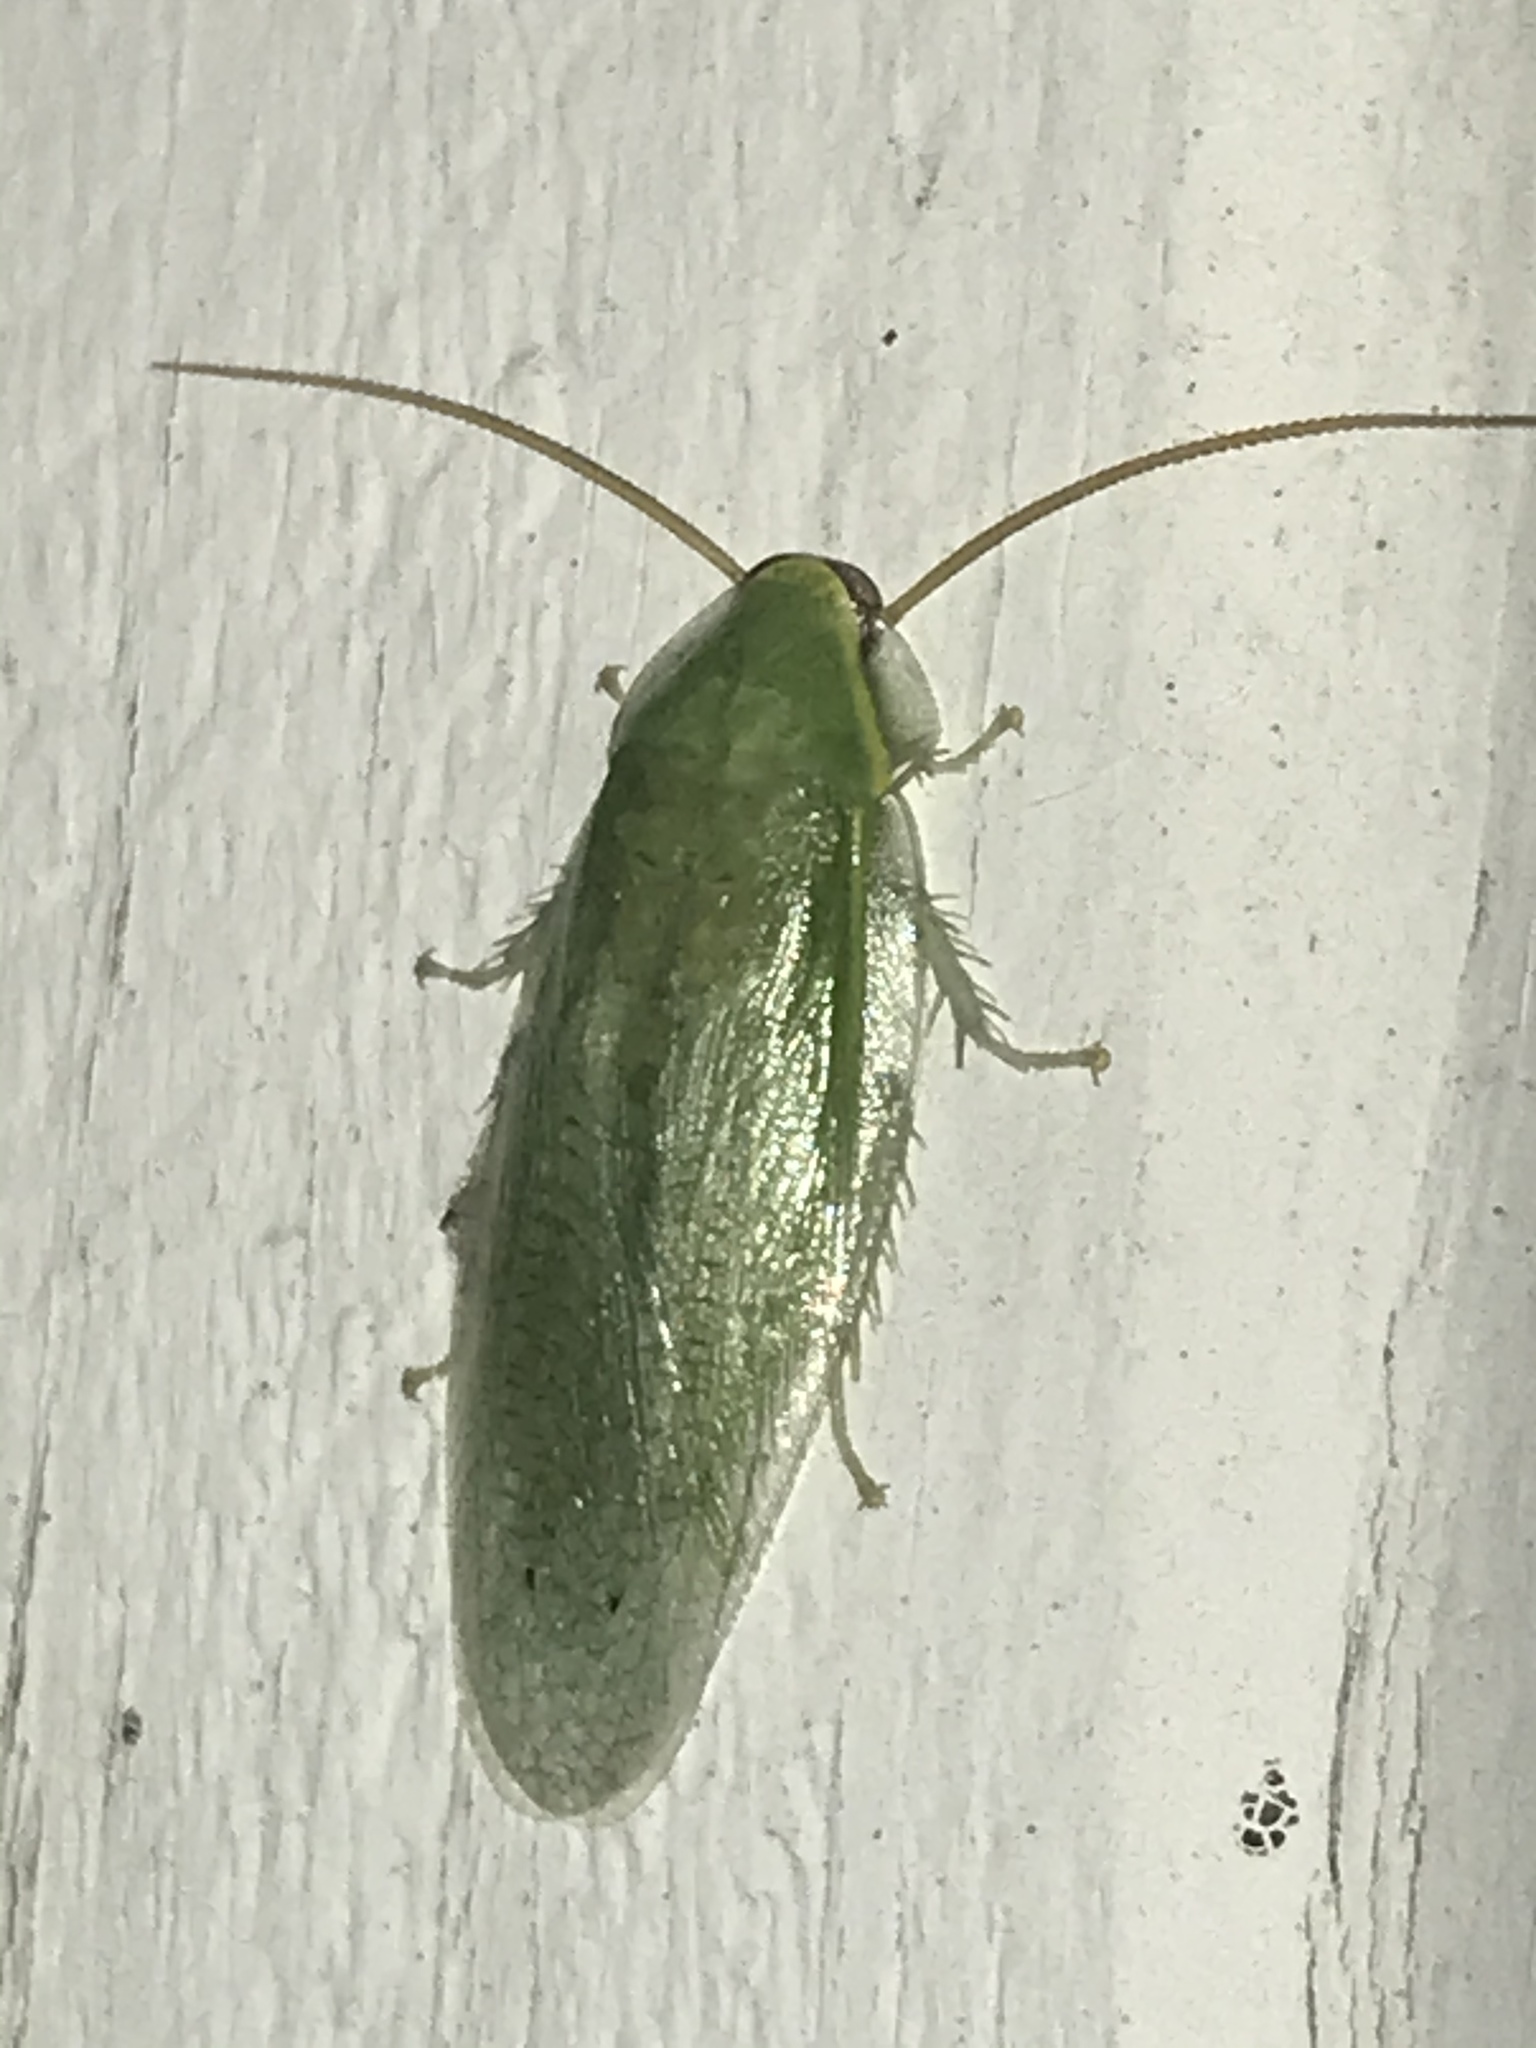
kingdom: Animalia
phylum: Arthropoda
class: Insecta
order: Blattodea
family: Blaberidae
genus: Panchlora
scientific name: Panchlora nivea
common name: Cuban cockroach
